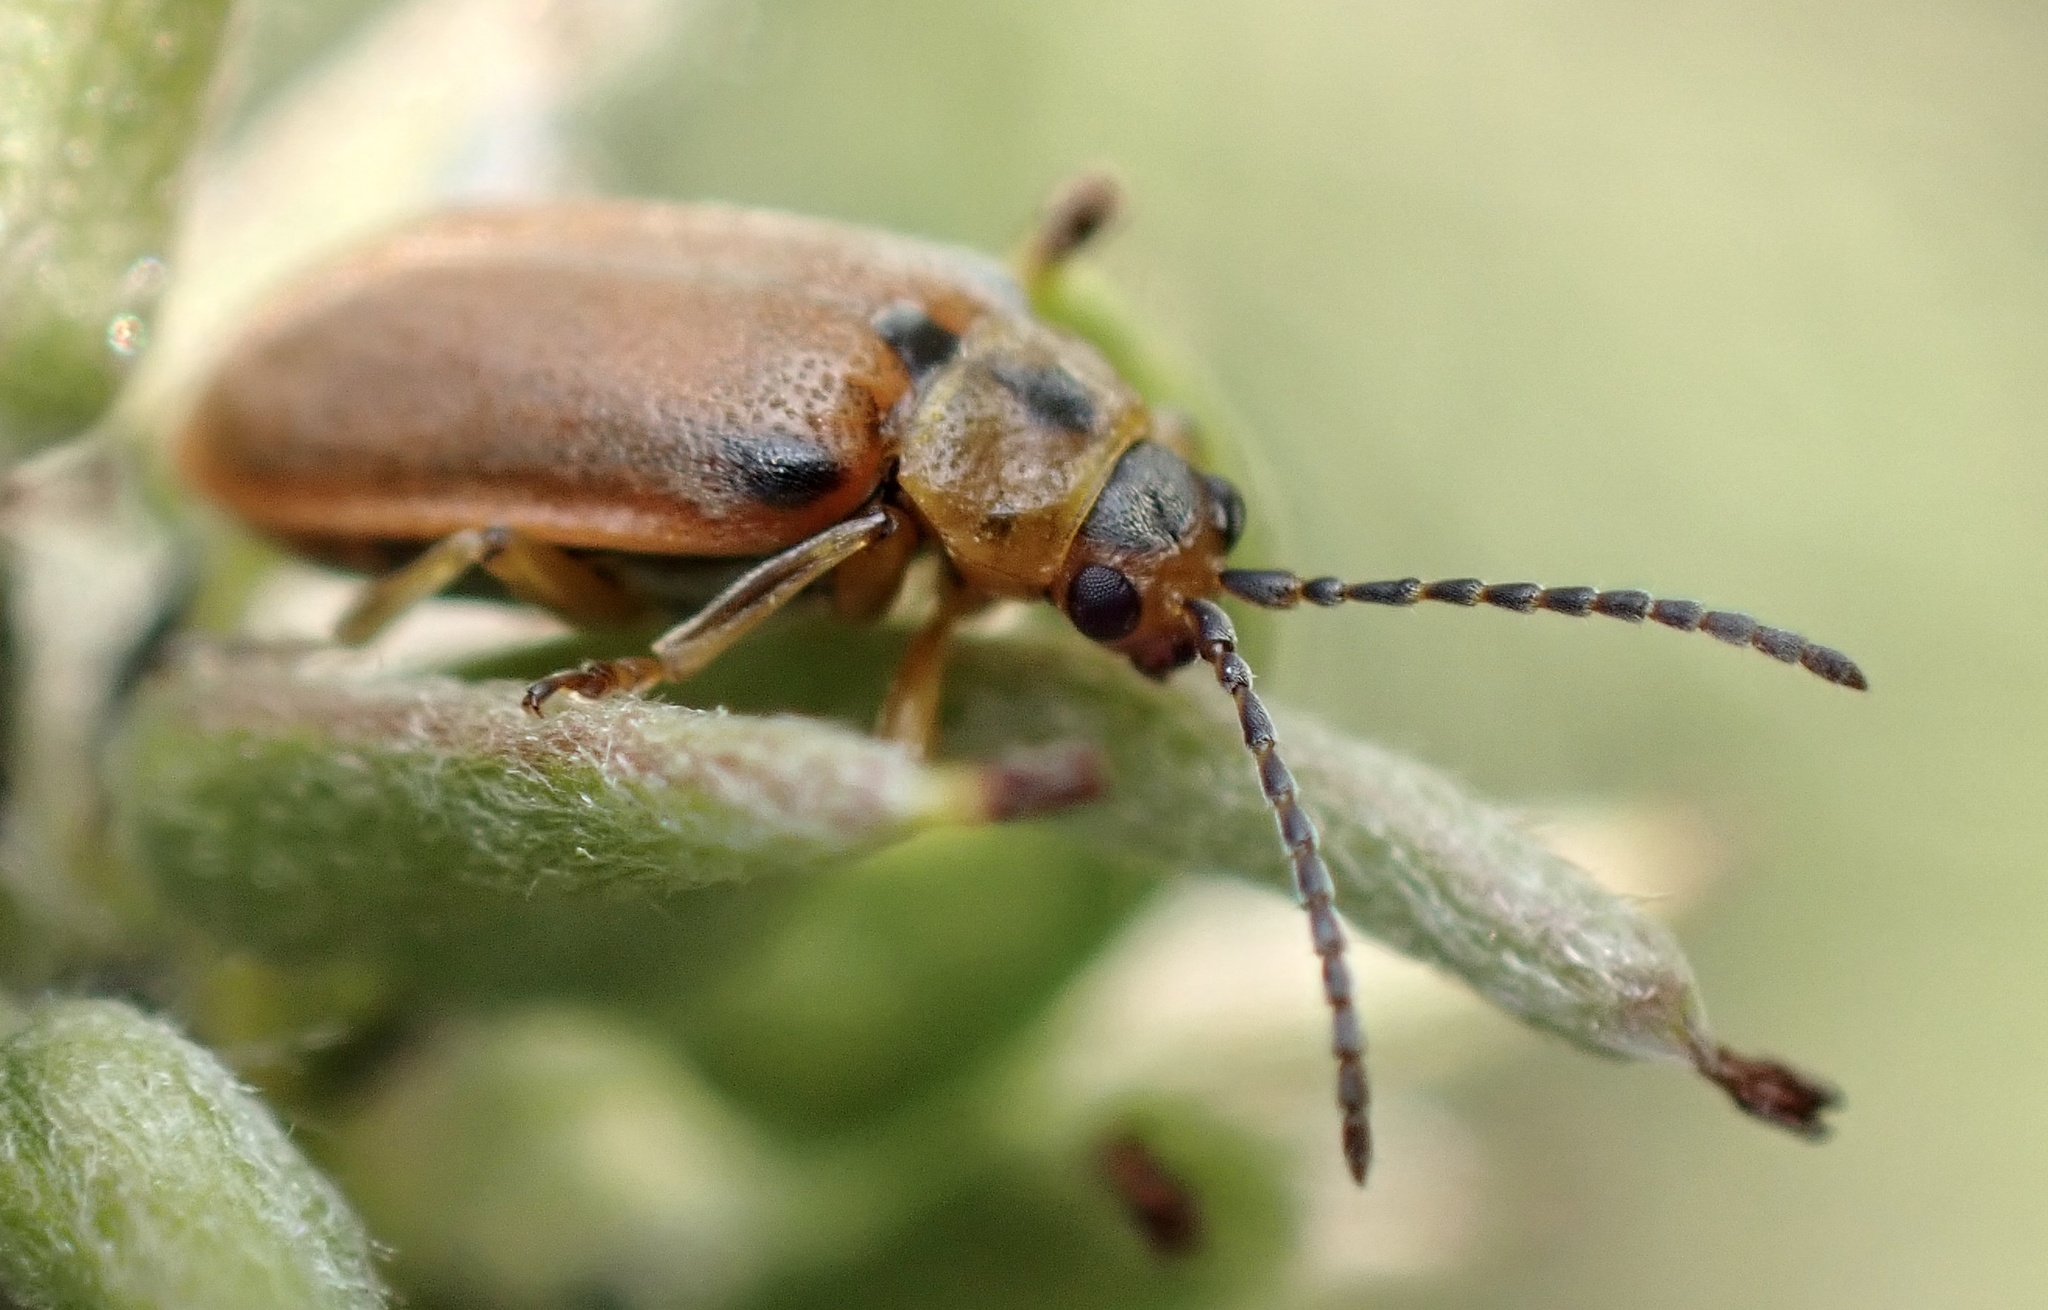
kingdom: Animalia
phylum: Arthropoda
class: Insecta
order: Coleoptera
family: Chrysomelidae
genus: Galerucella
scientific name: Galerucella lineola
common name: Brown willow beetle
